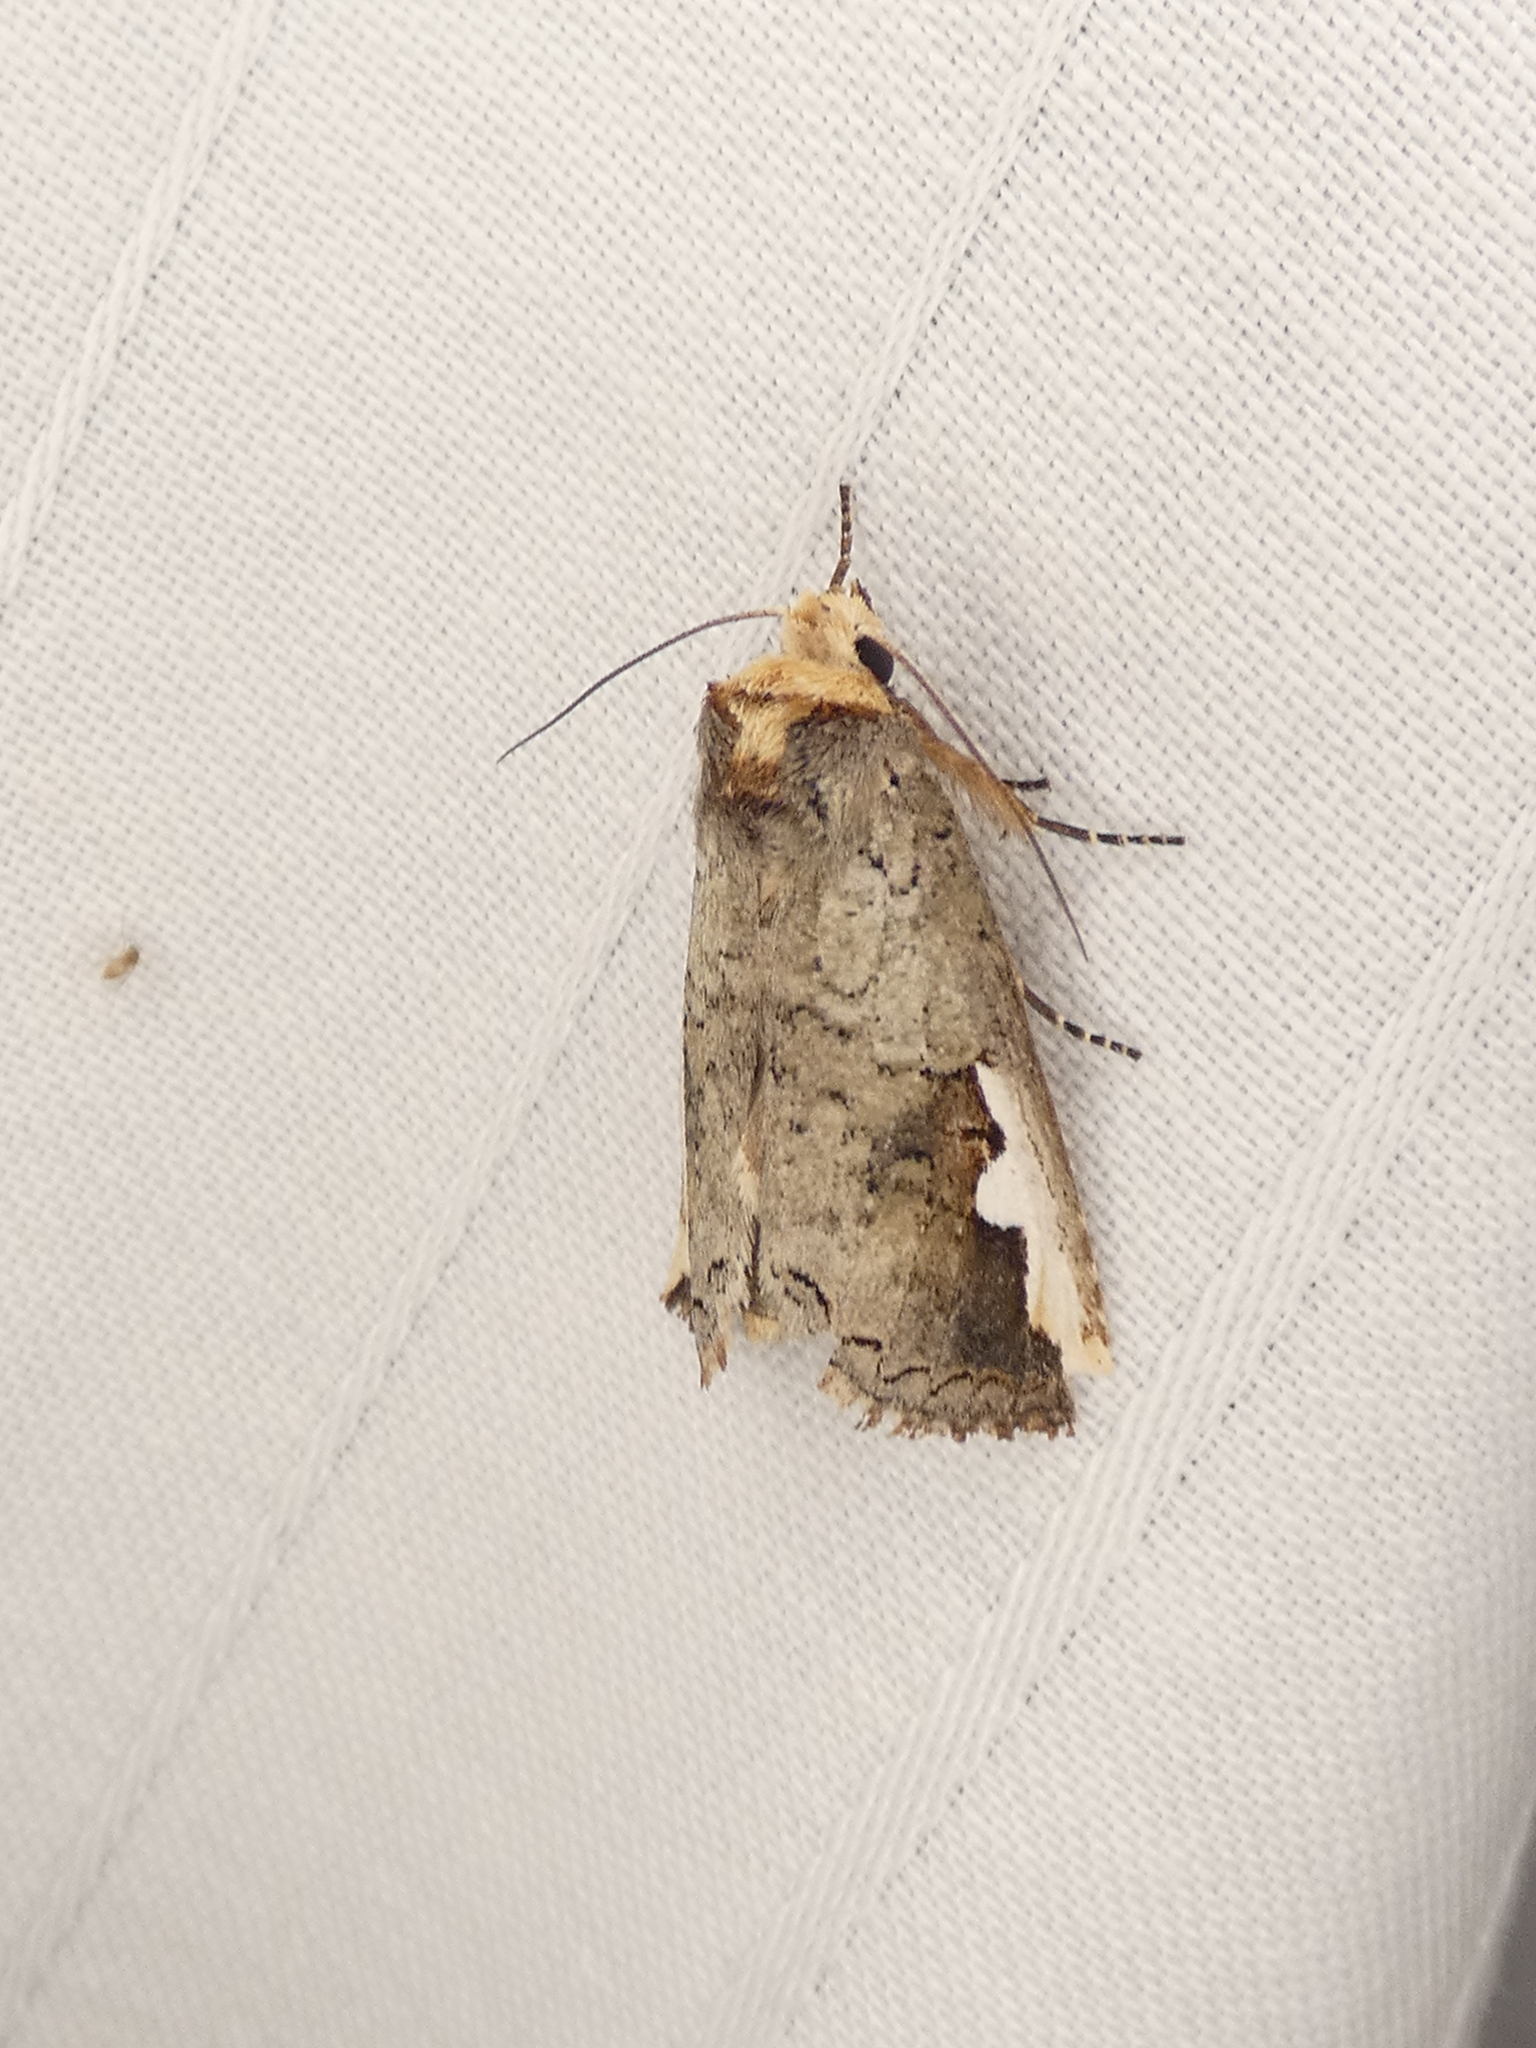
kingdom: Animalia
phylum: Arthropoda
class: Insecta
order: Lepidoptera
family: Notodontidae
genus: Symmerista
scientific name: Symmerista albifrons
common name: White-headed prominent
